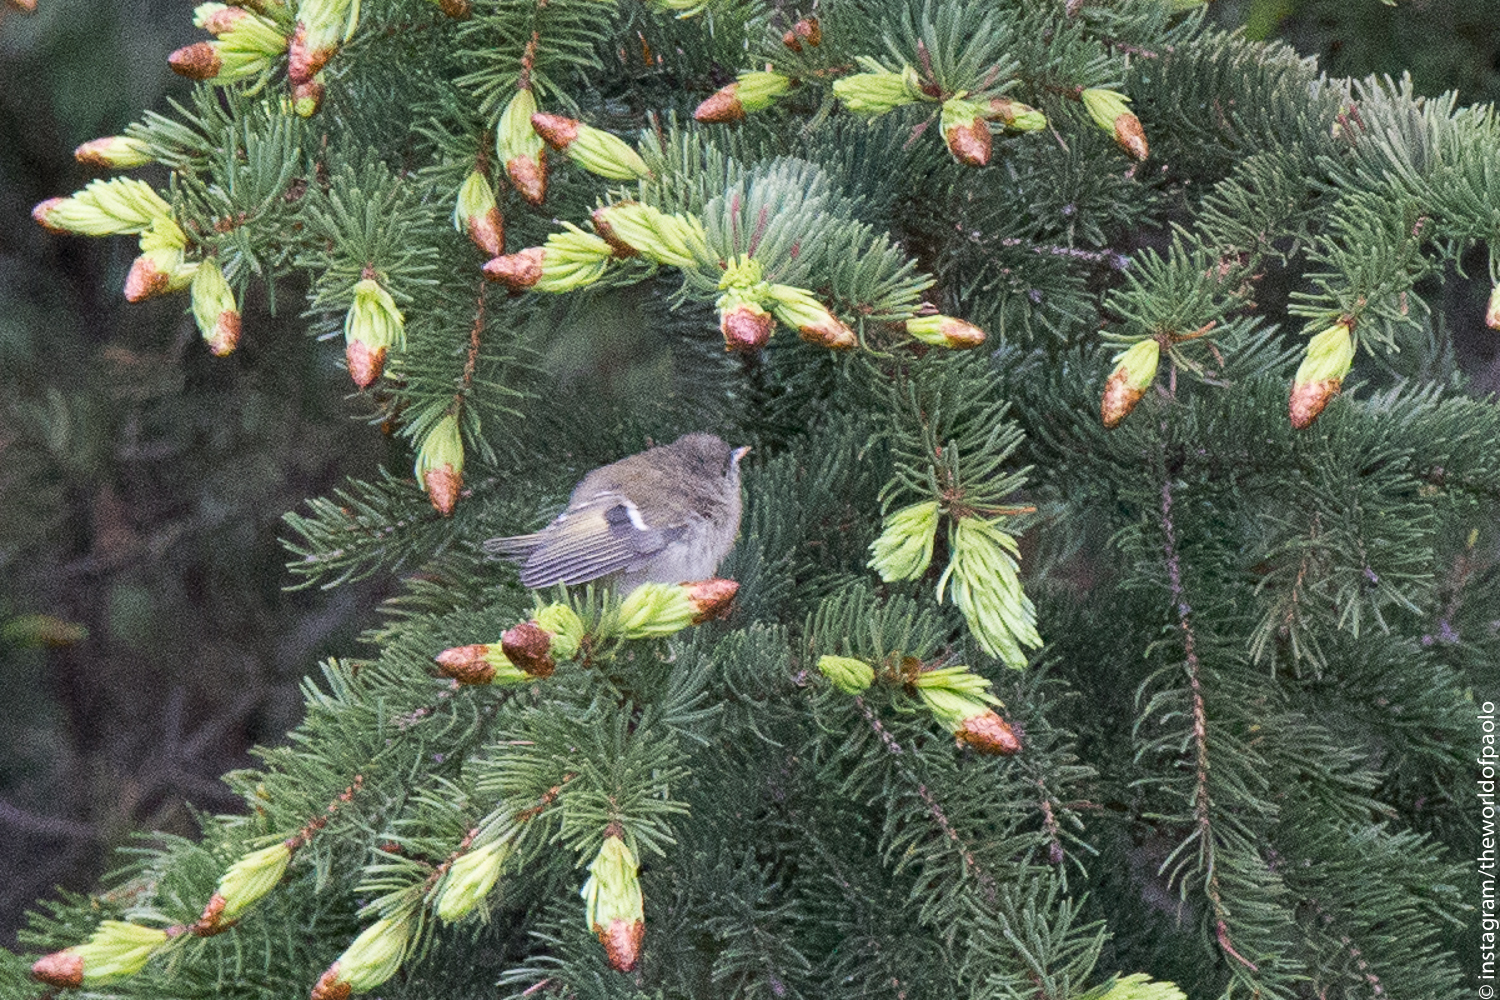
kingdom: Animalia
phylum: Chordata
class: Aves
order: Passeriformes
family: Regulidae
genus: Regulus
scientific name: Regulus regulus
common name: Goldcrest
